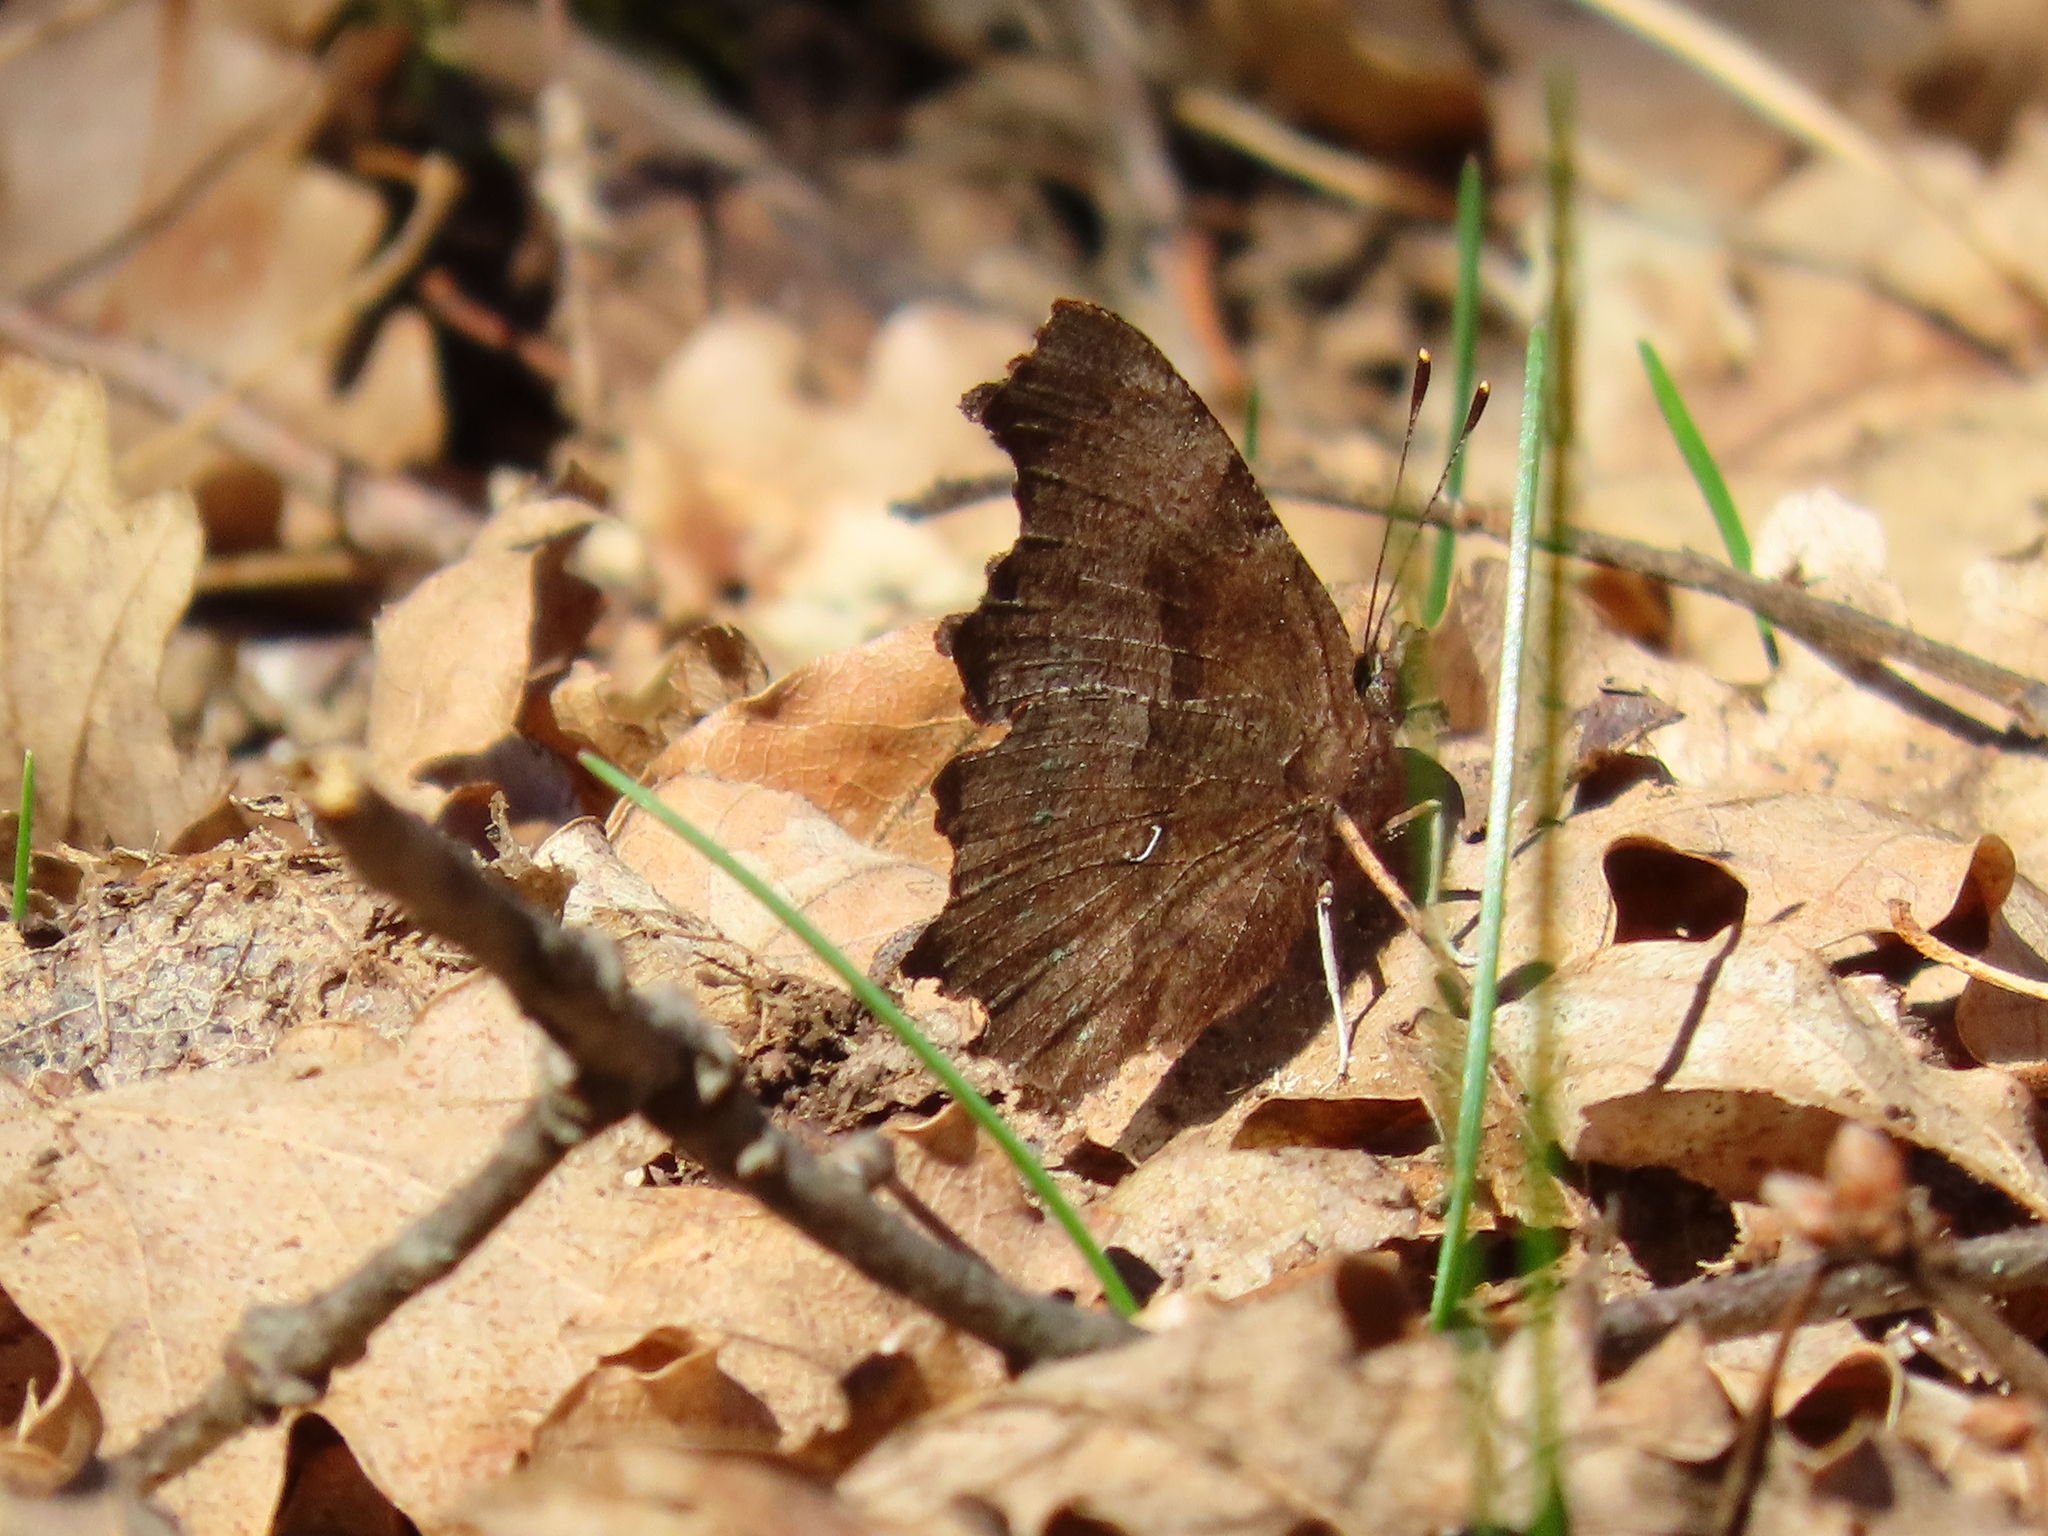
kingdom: Animalia
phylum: Arthropoda
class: Insecta
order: Lepidoptera
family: Nymphalidae
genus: Polygonia
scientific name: Polygonia c-album
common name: Comma
